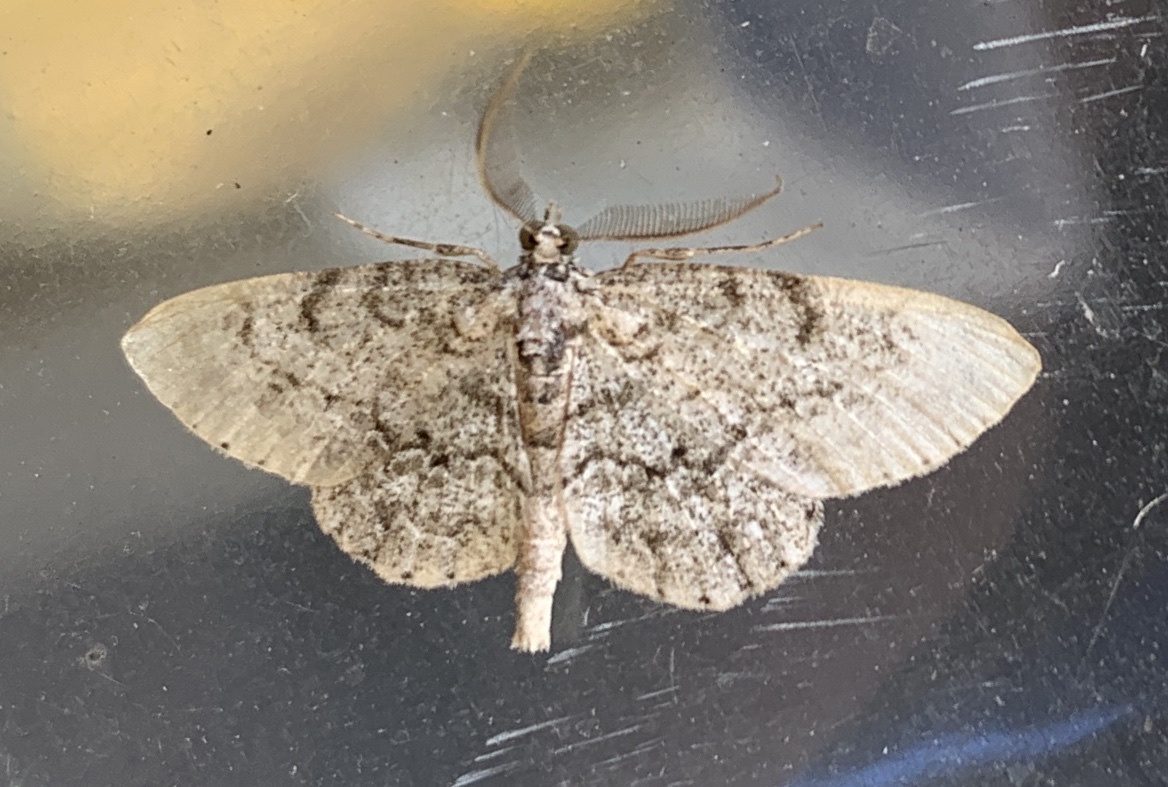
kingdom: Animalia
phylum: Arthropoda
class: Insecta
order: Lepidoptera
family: Geometridae
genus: Protoboarmia
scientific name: Protoboarmia porcelaria
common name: Porcelain gray
